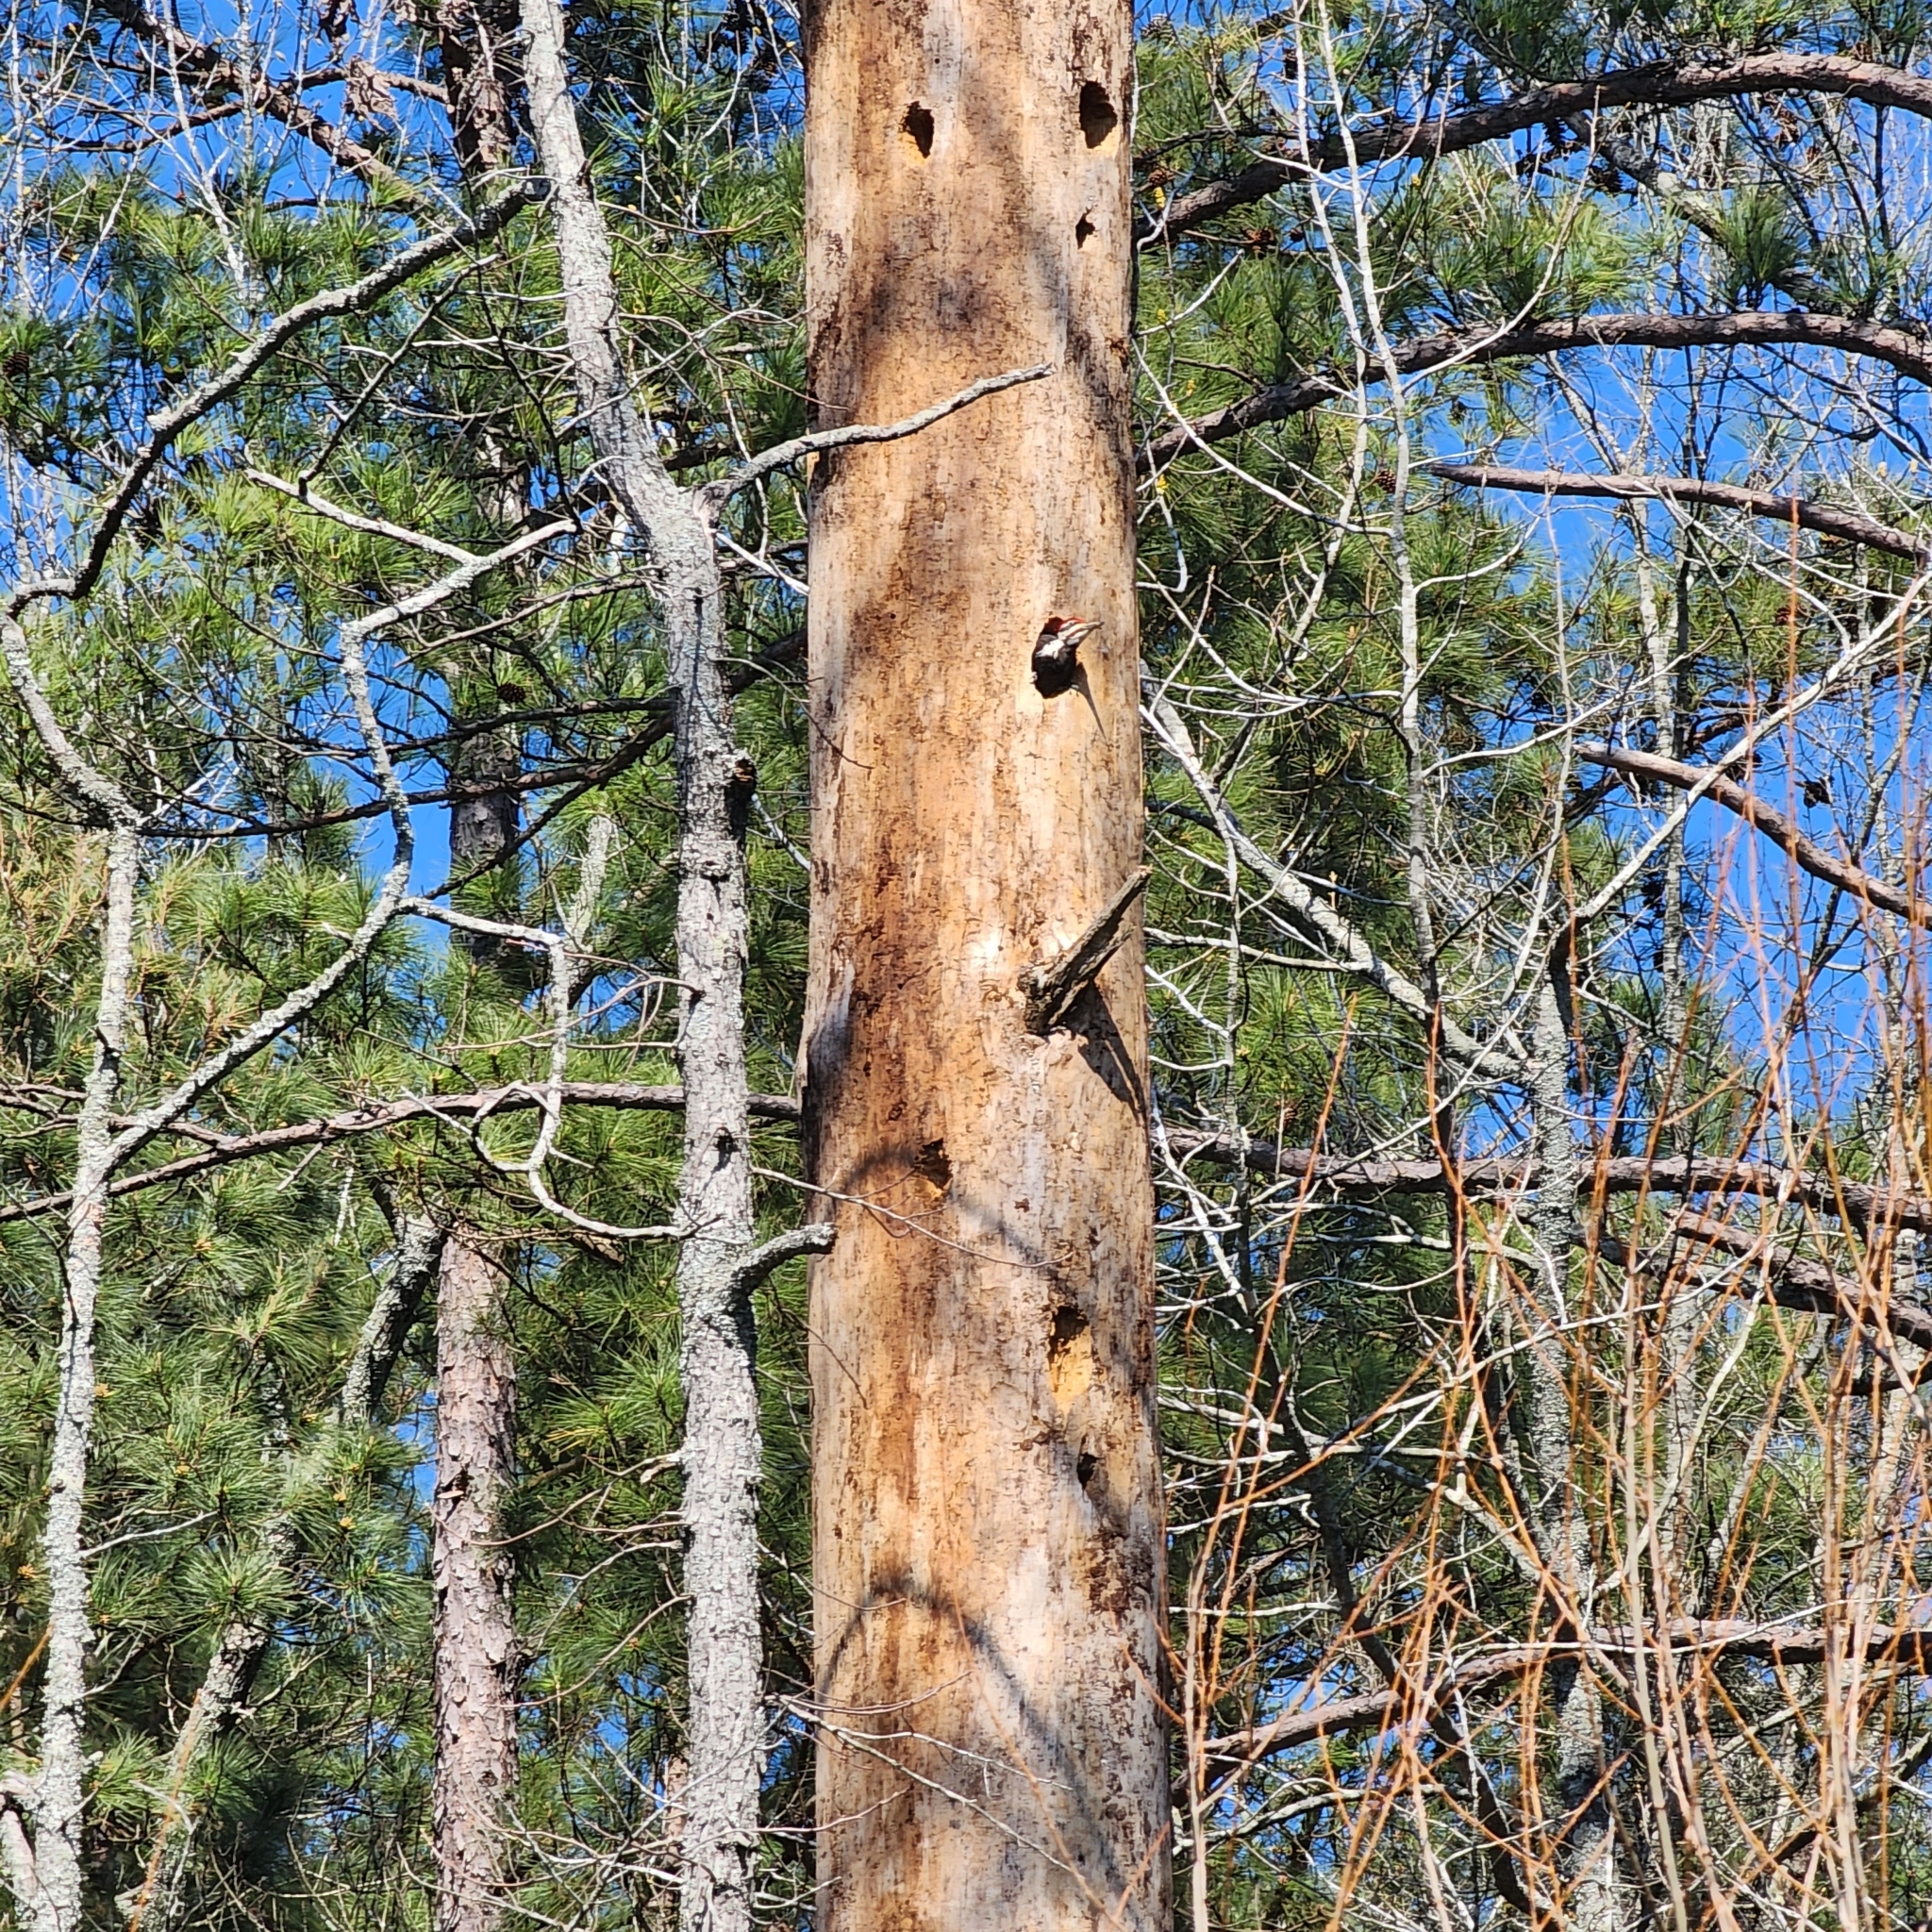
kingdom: Animalia
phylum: Chordata
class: Aves
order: Piciformes
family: Picidae
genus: Dryocopus
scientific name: Dryocopus pileatus
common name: Pileated woodpecker
